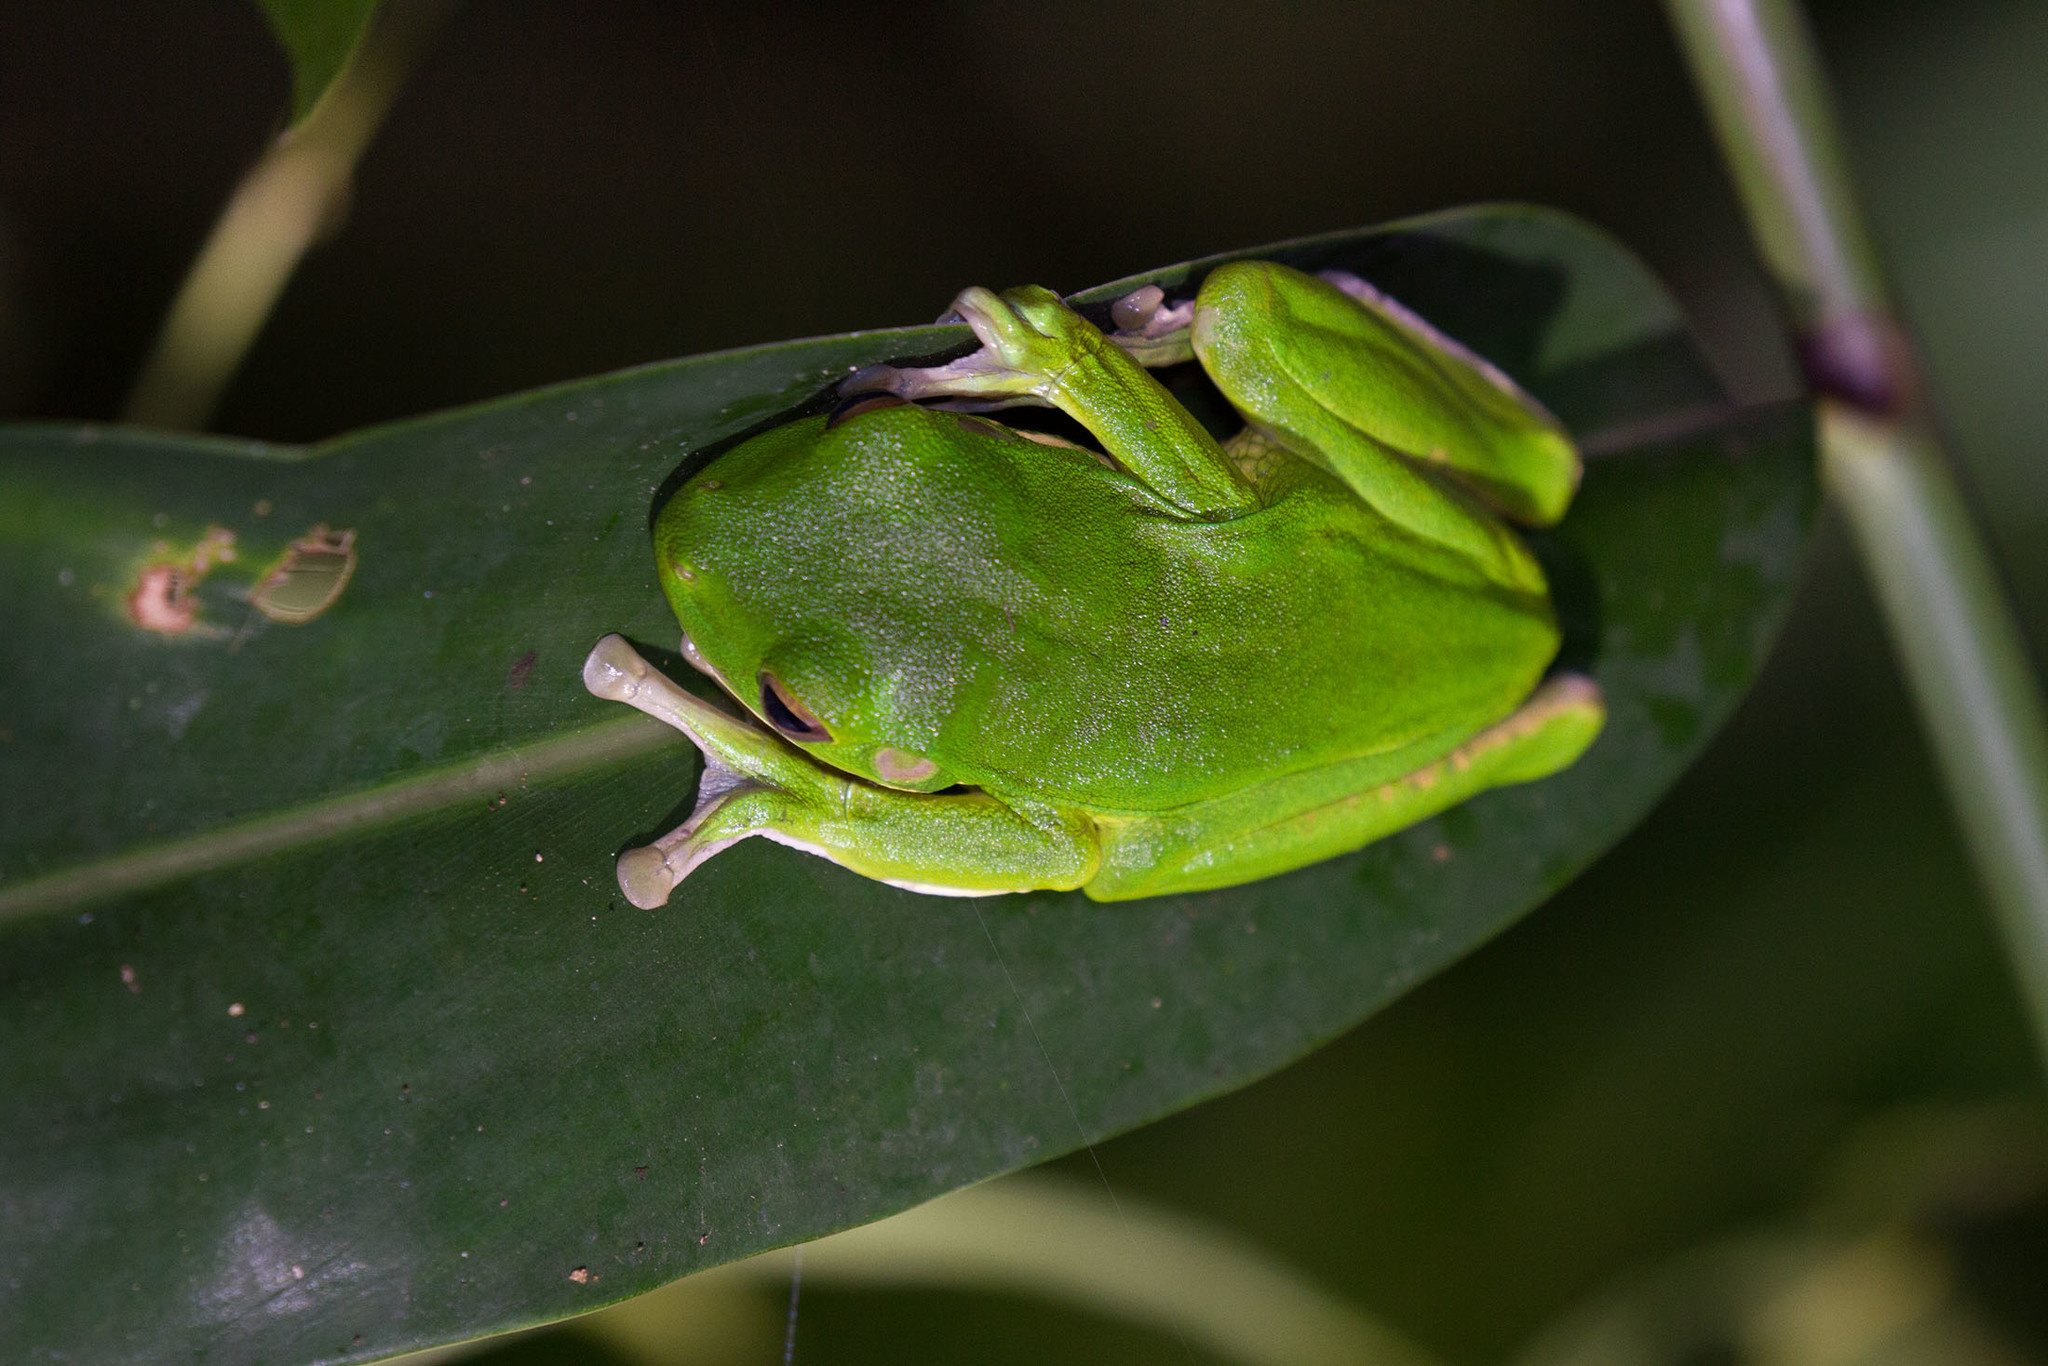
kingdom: Animalia
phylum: Chordata
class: Amphibia
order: Anura
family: Pelodryadidae
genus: Nyctimystes
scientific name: Nyctimystes infrafrenatus
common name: Australian giant treefrog
